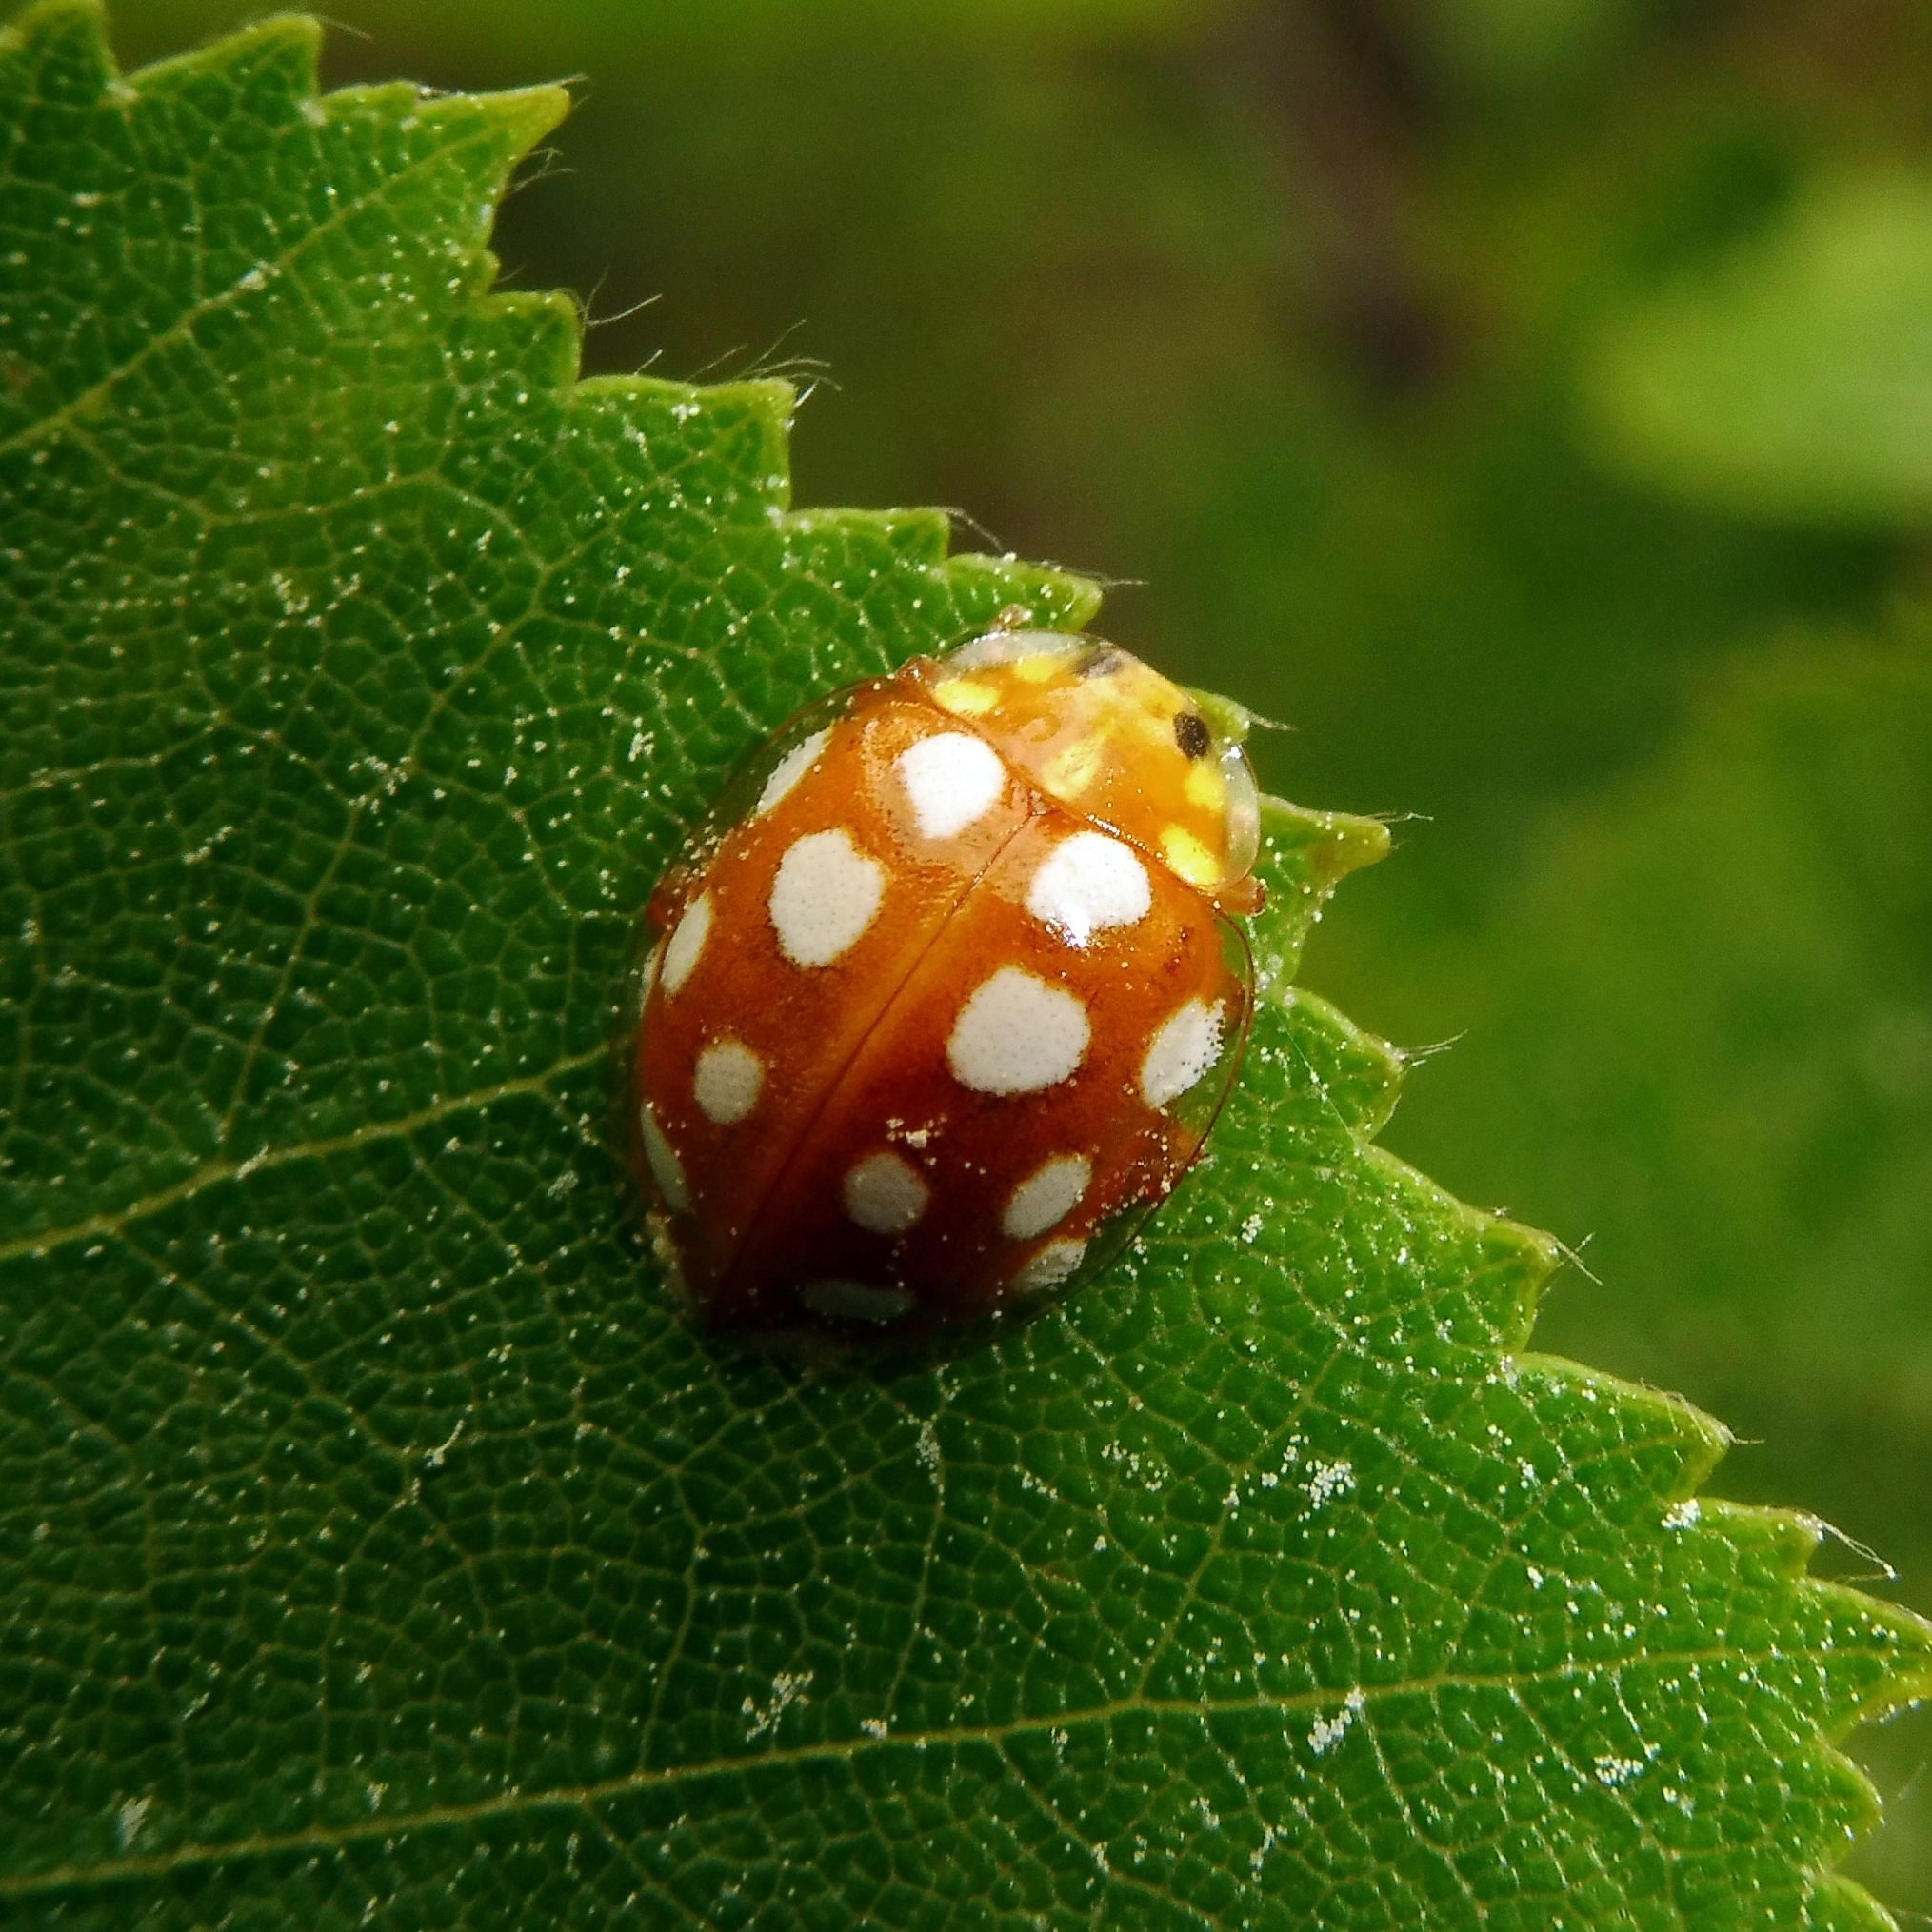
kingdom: Animalia
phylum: Arthropoda
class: Insecta
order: Coleoptera
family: Coccinellidae
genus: Halyzia
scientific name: Halyzia sedecimguttata
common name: Orange ladybird
